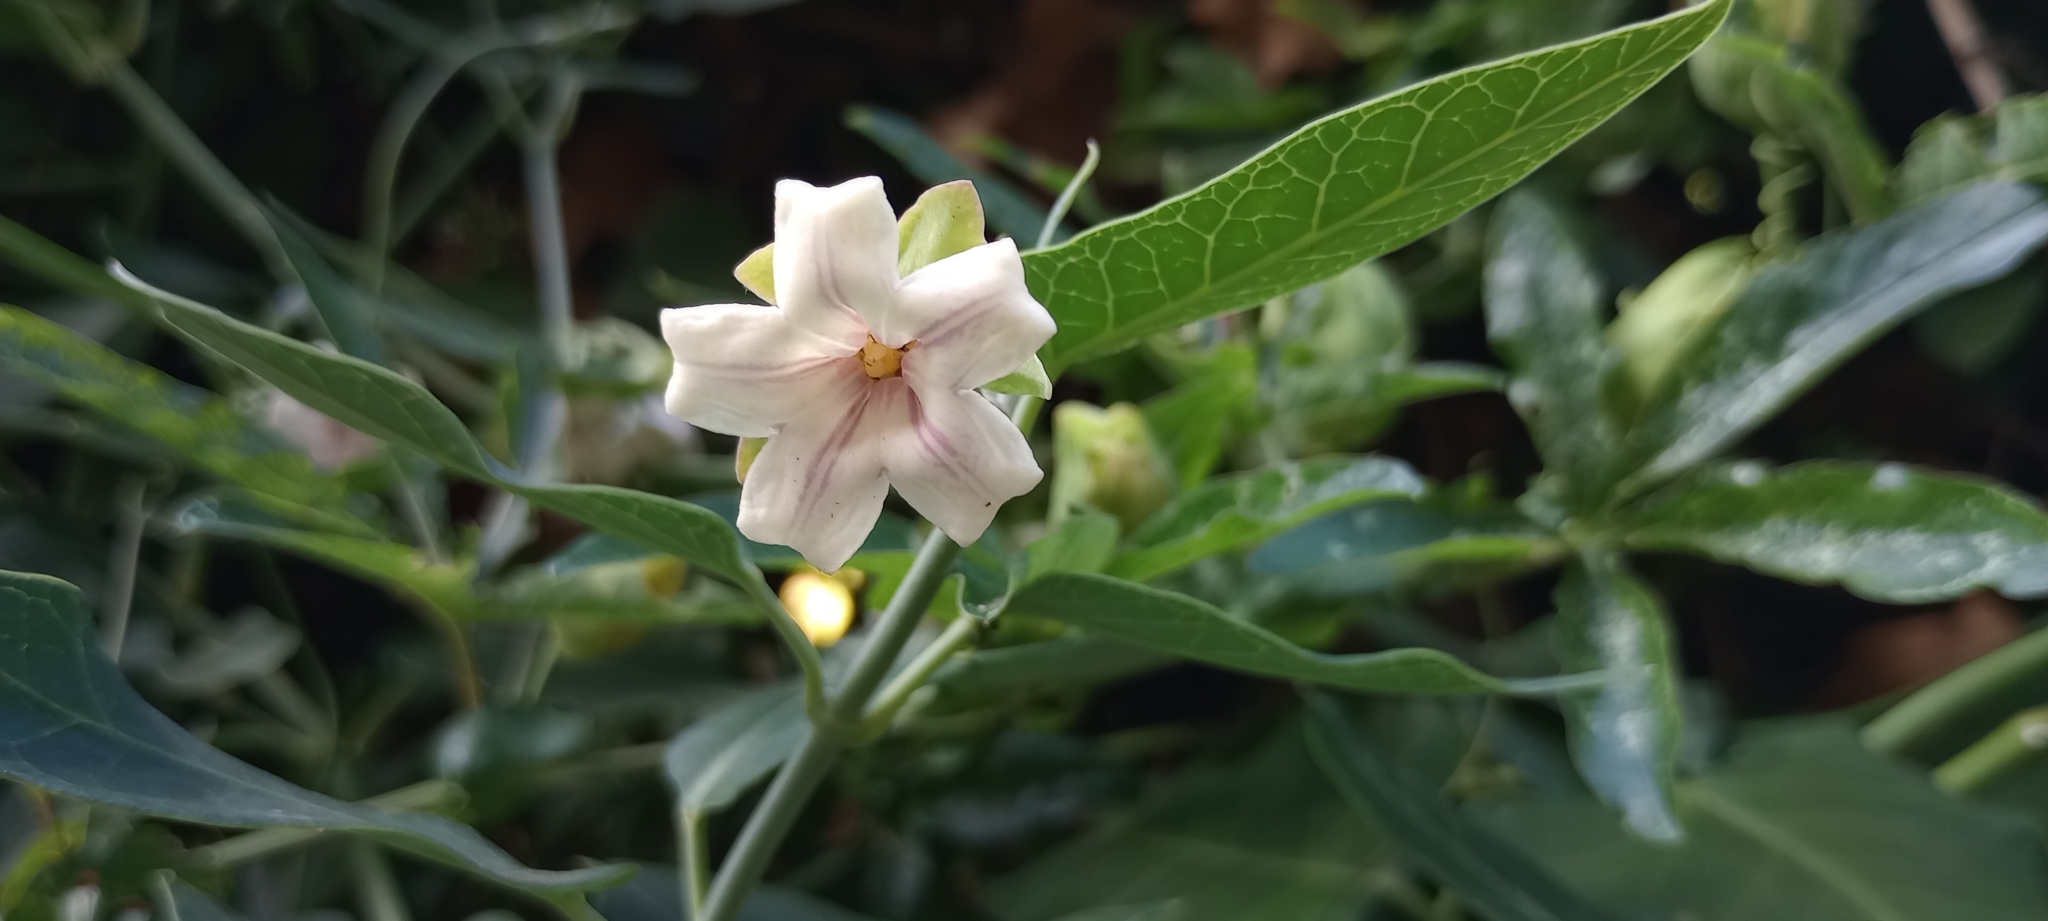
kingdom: Plantae
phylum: Tracheophyta
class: Magnoliopsida
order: Gentianales
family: Apocynaceae
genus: Araujia
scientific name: Araujia sericifera
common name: White bladderflower
